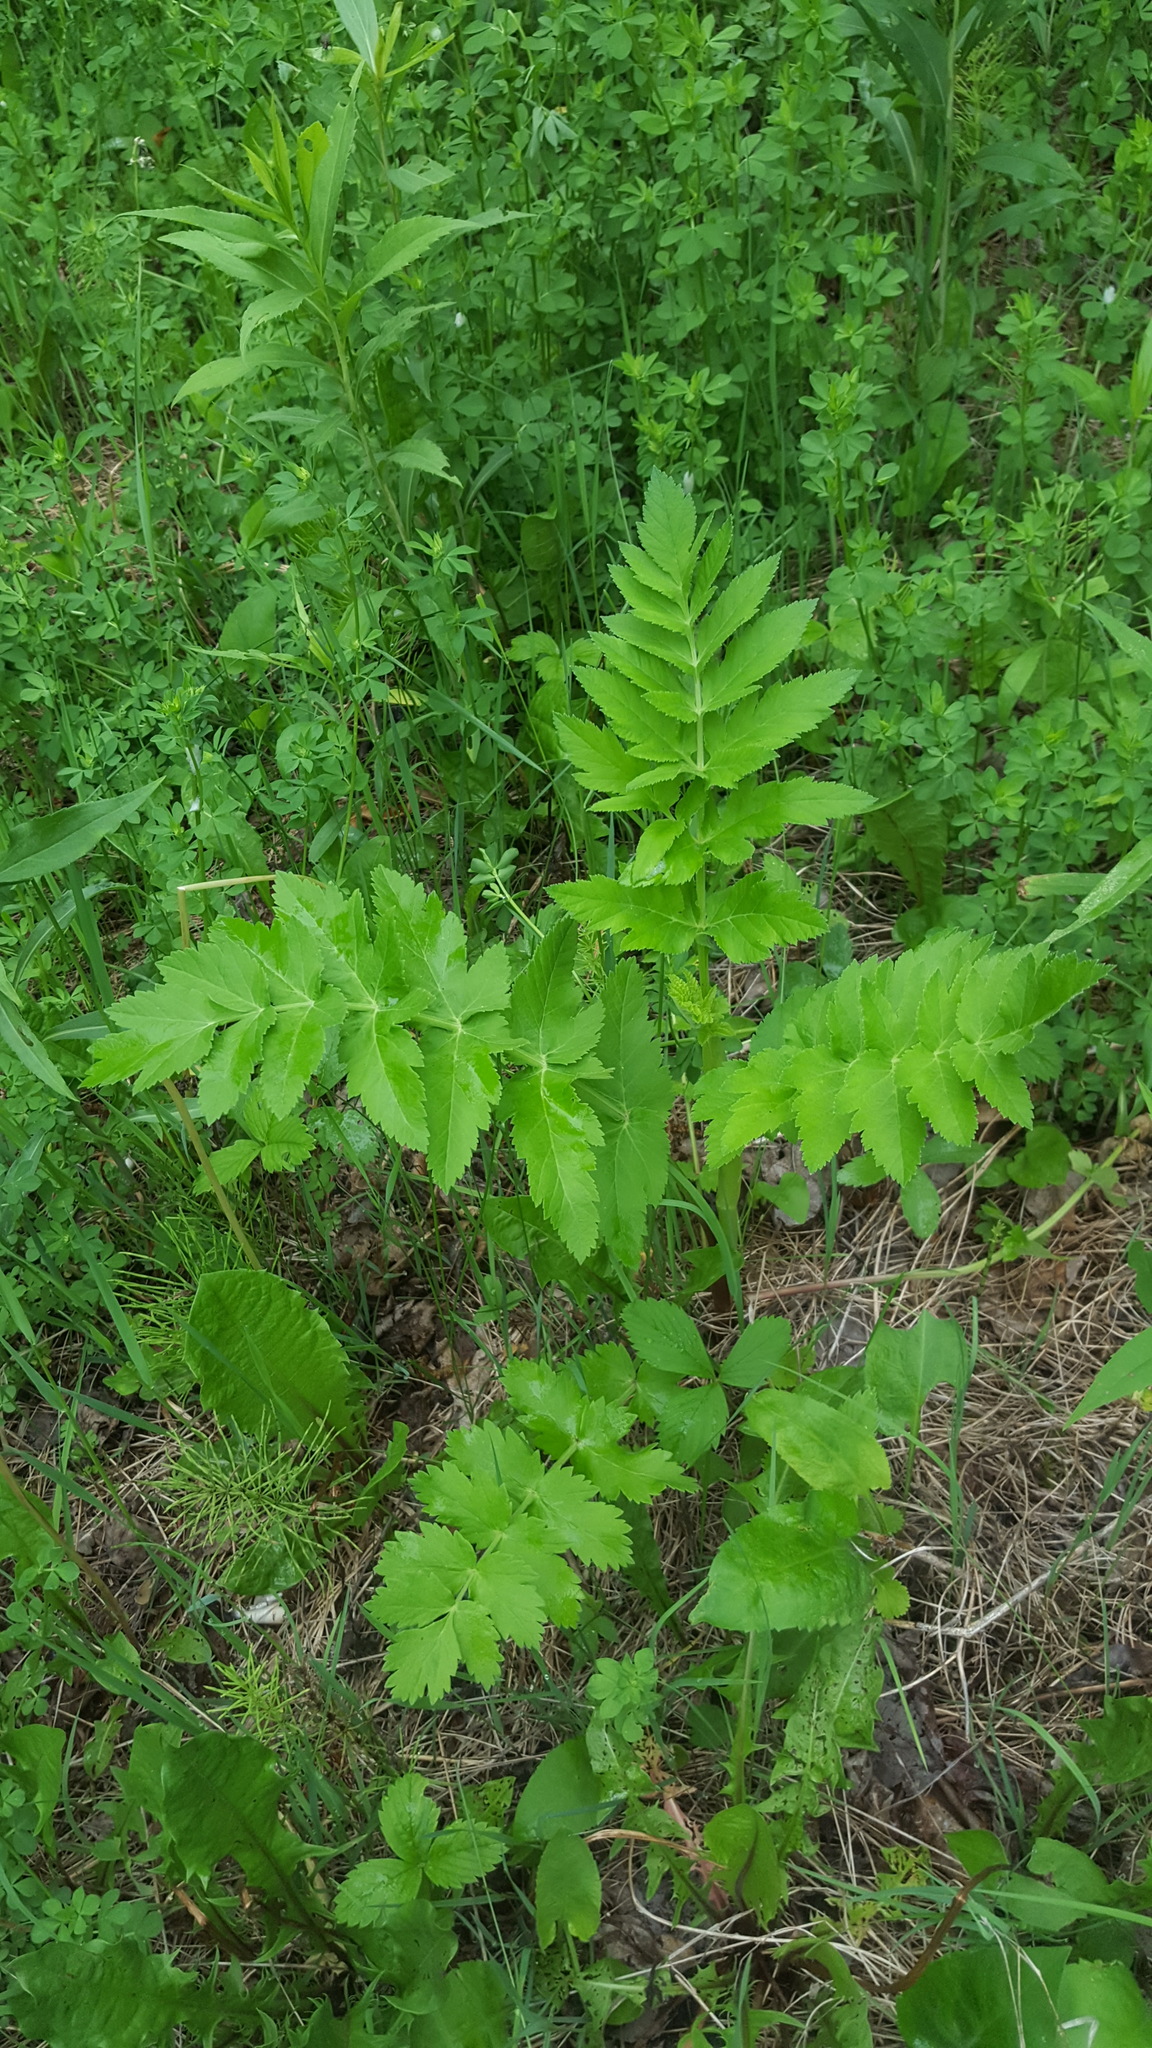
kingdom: Plantae
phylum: Tracheophyta
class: Magnoliopsida
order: Apiales
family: Apiaceae
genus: Pastinaca
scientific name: Pastinaca sativa
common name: Wild parsnip
